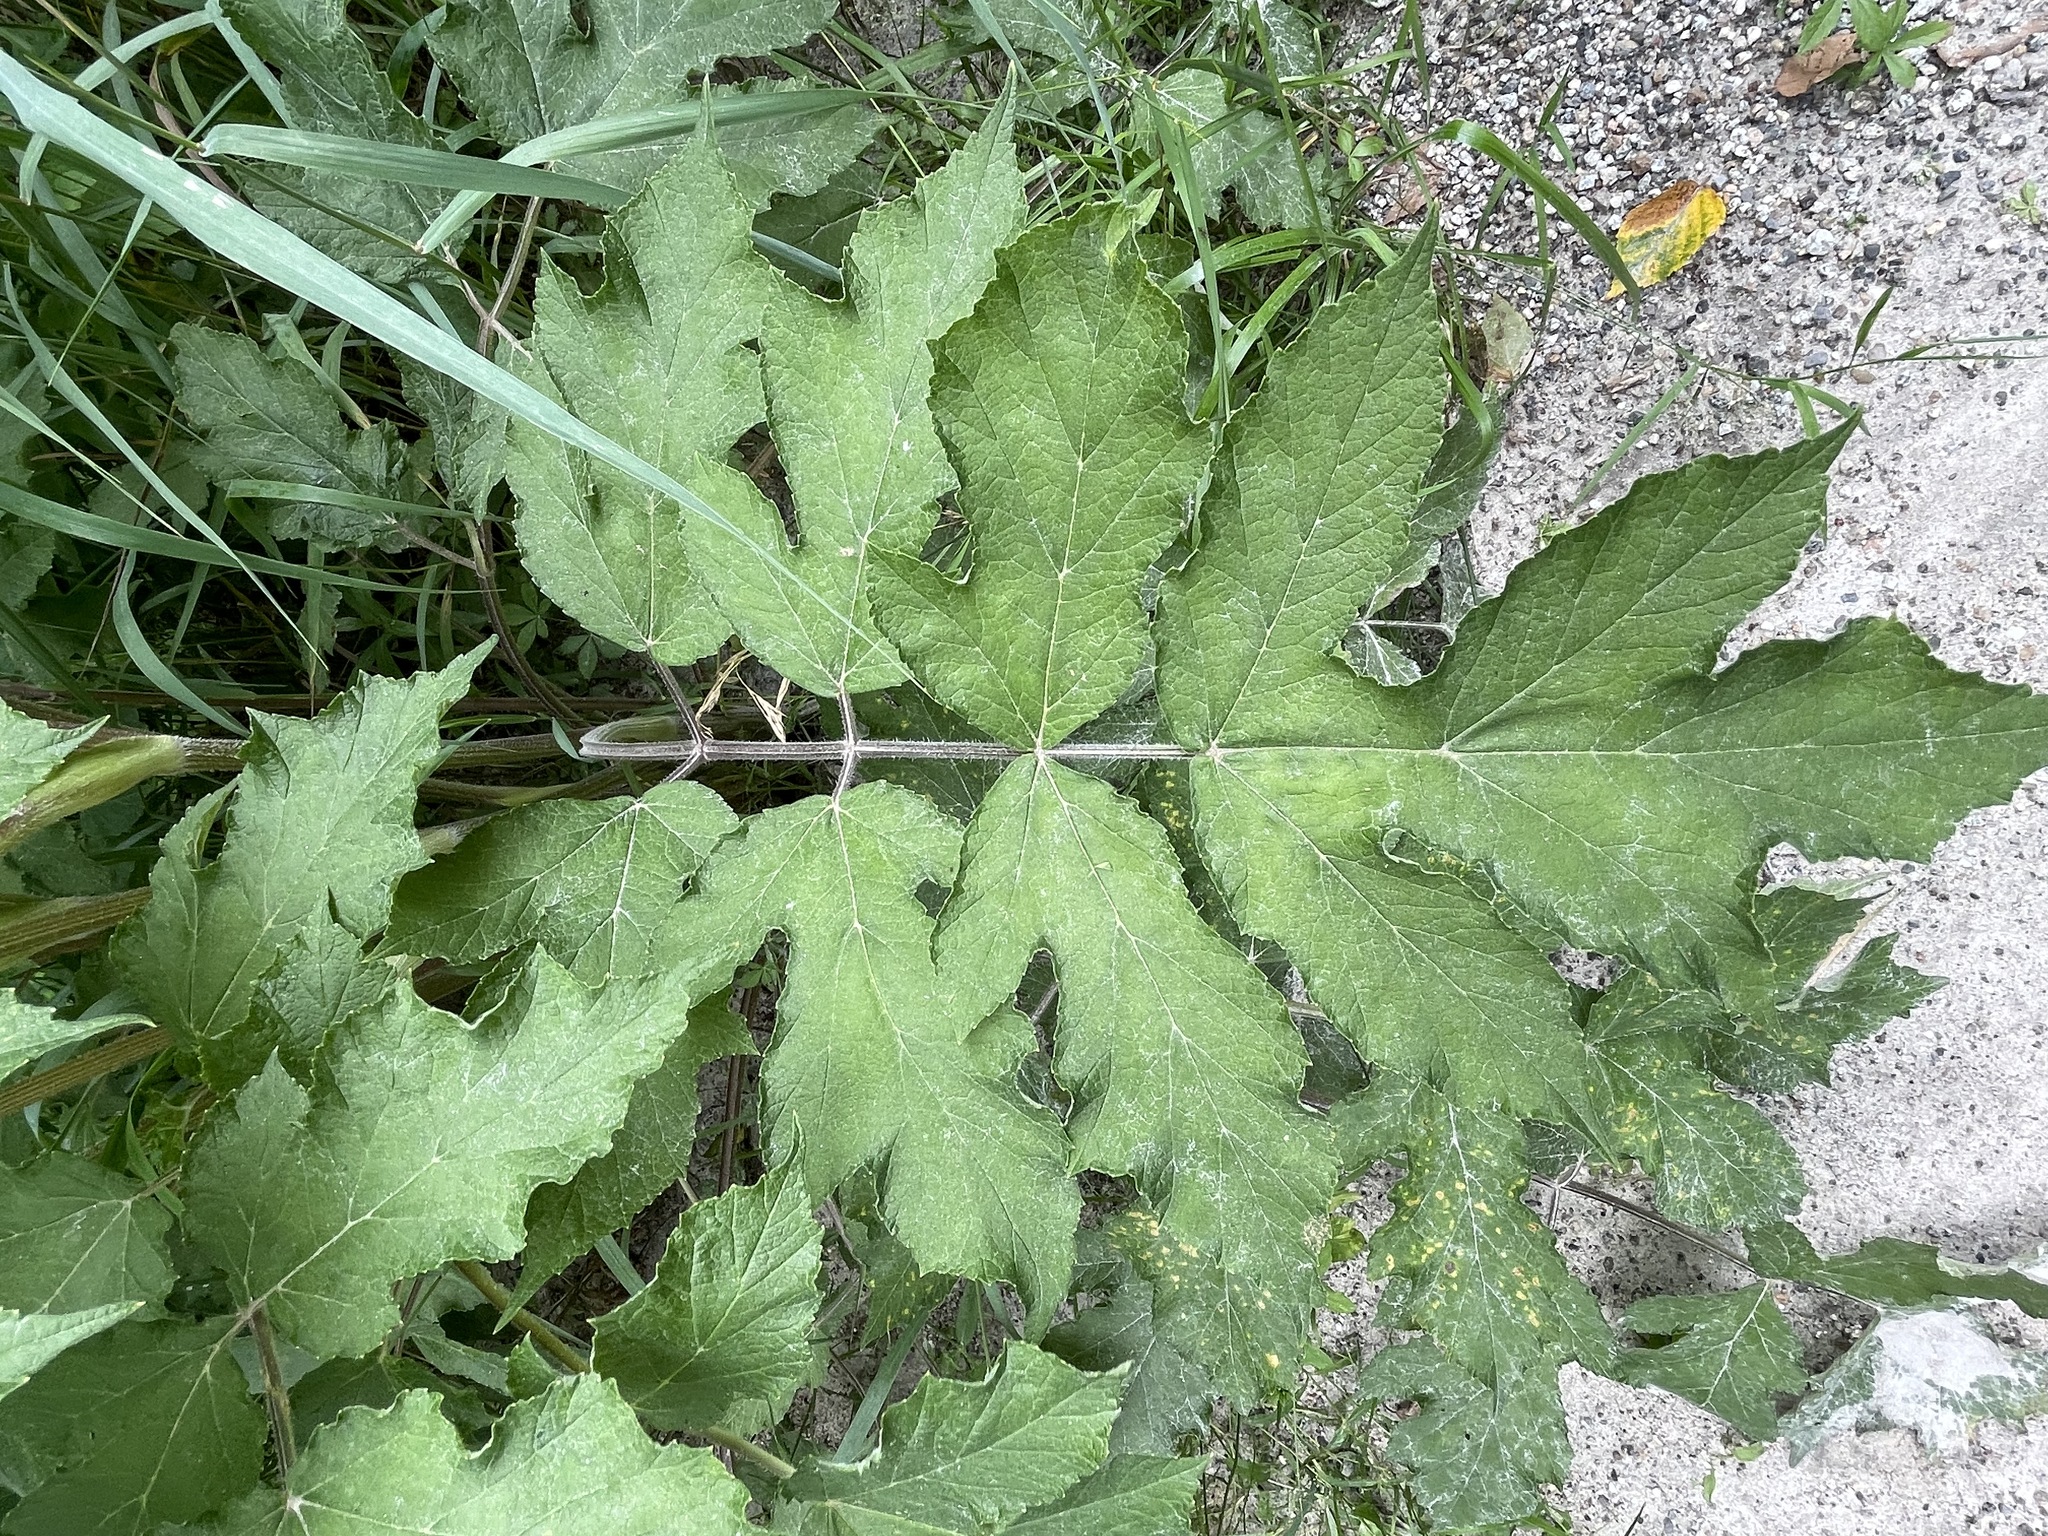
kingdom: Plantae
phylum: Tracheophyta
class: Magnoliopsida
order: Apiales
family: Apiaceae
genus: Heracleum
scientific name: Heracleum sphondylium
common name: Hogweed
